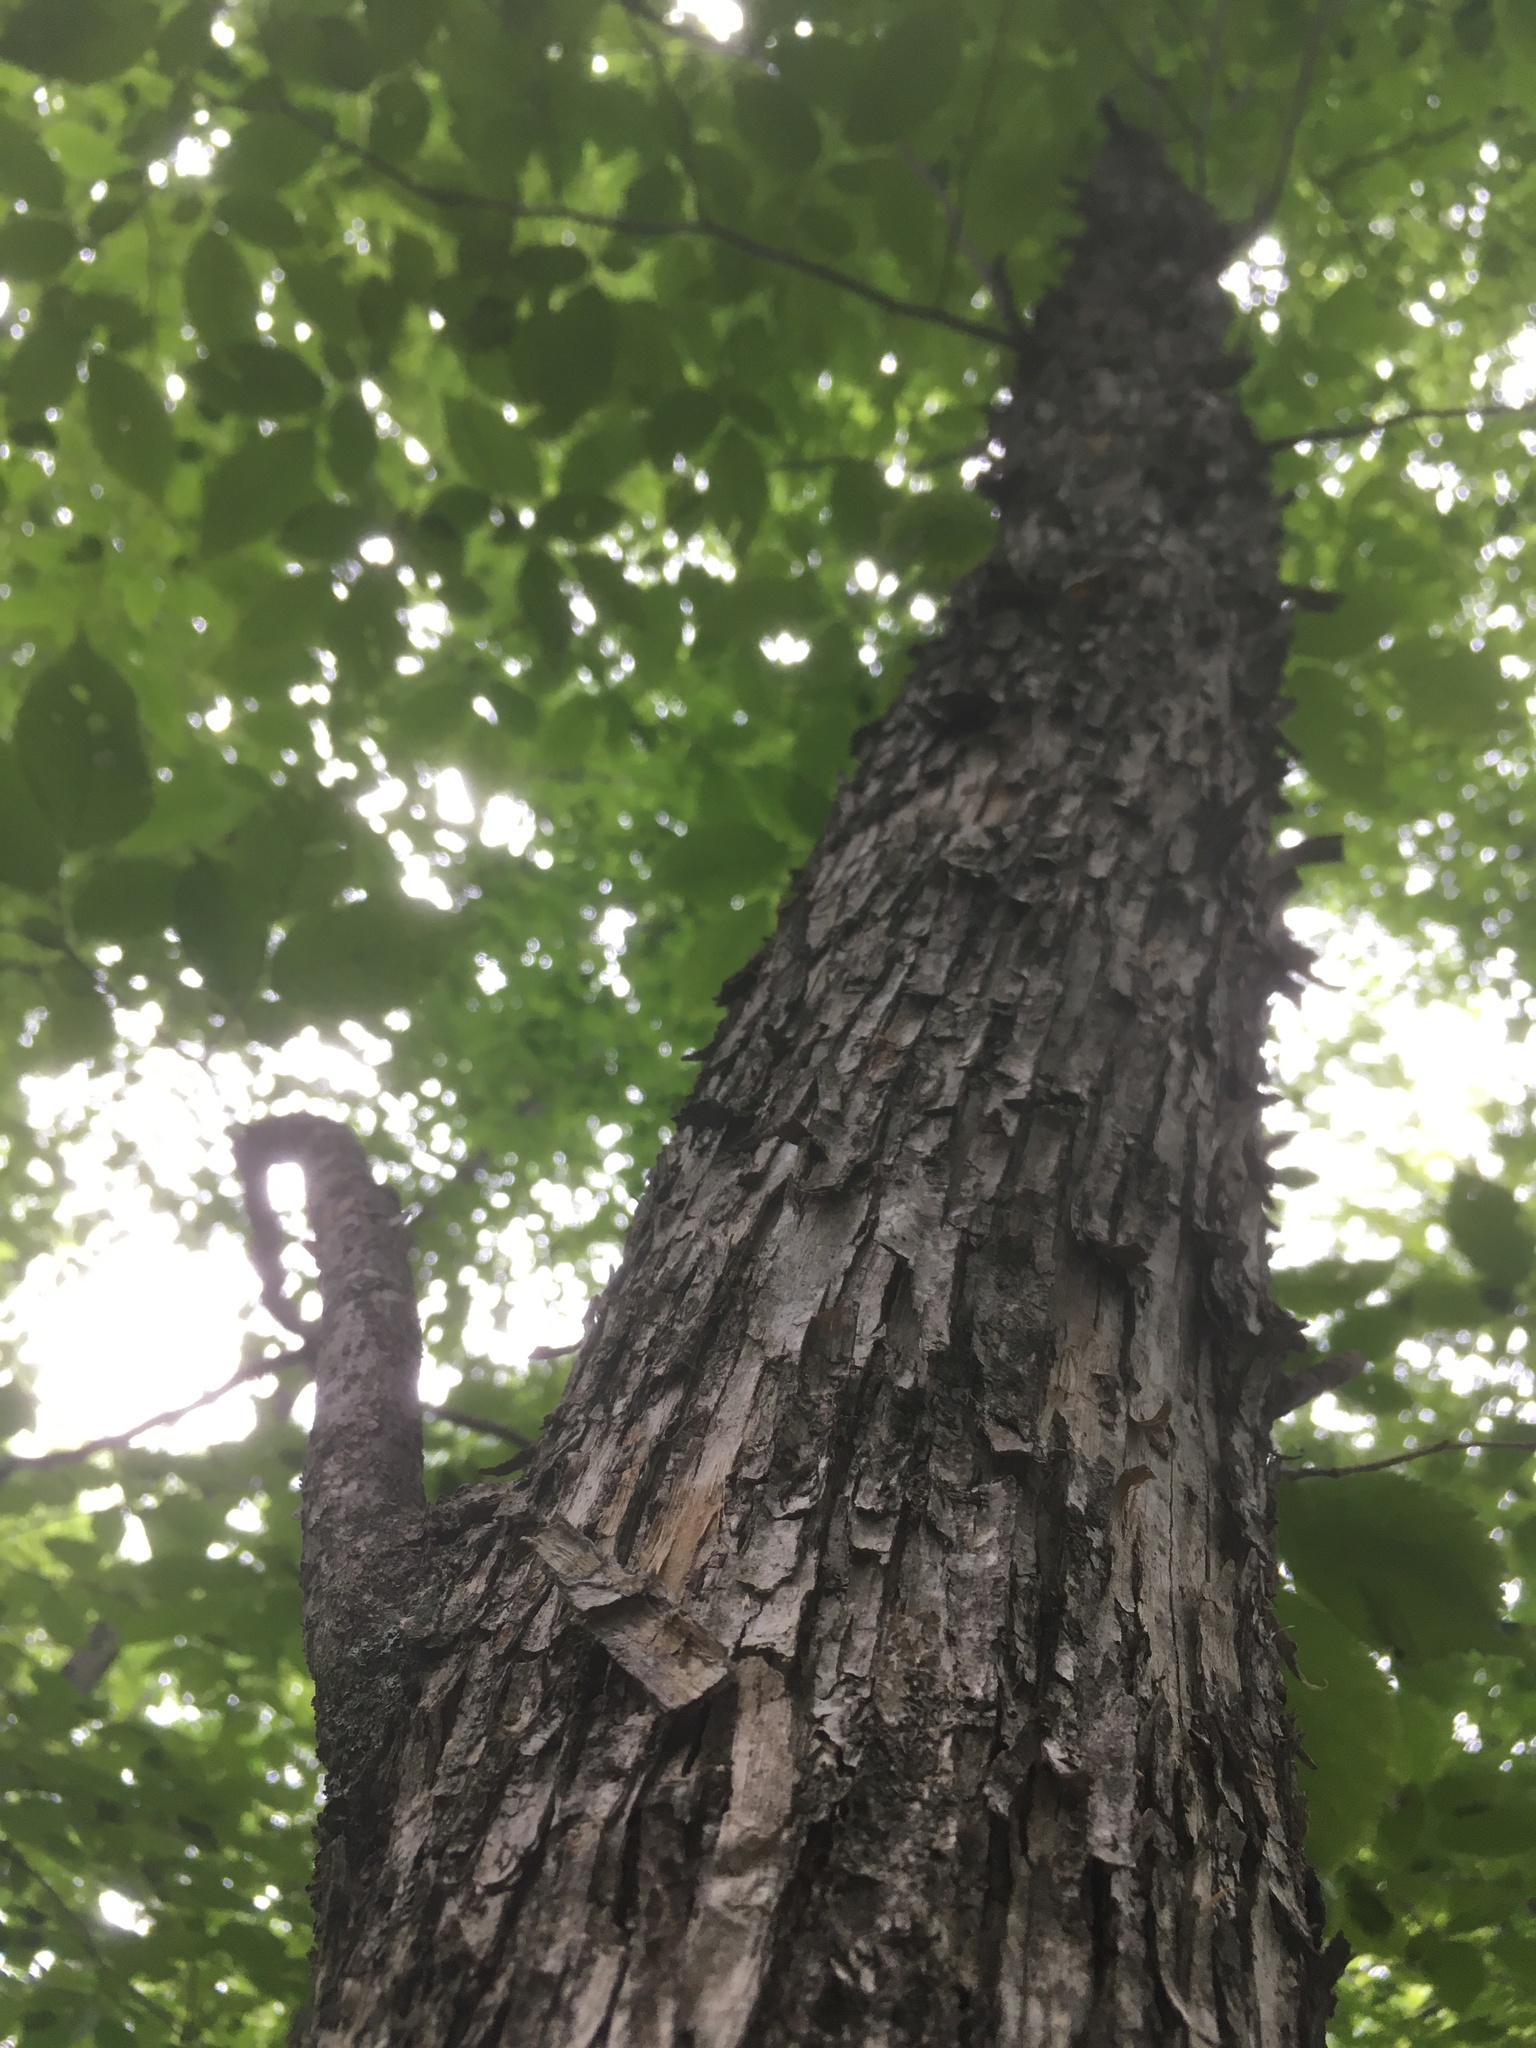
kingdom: Plantae
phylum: Tracheophyta
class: Magnoliopsida
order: Fagales
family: Betulaceae
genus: Ostrya
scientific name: Ostrya virginiana
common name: Ironwood
